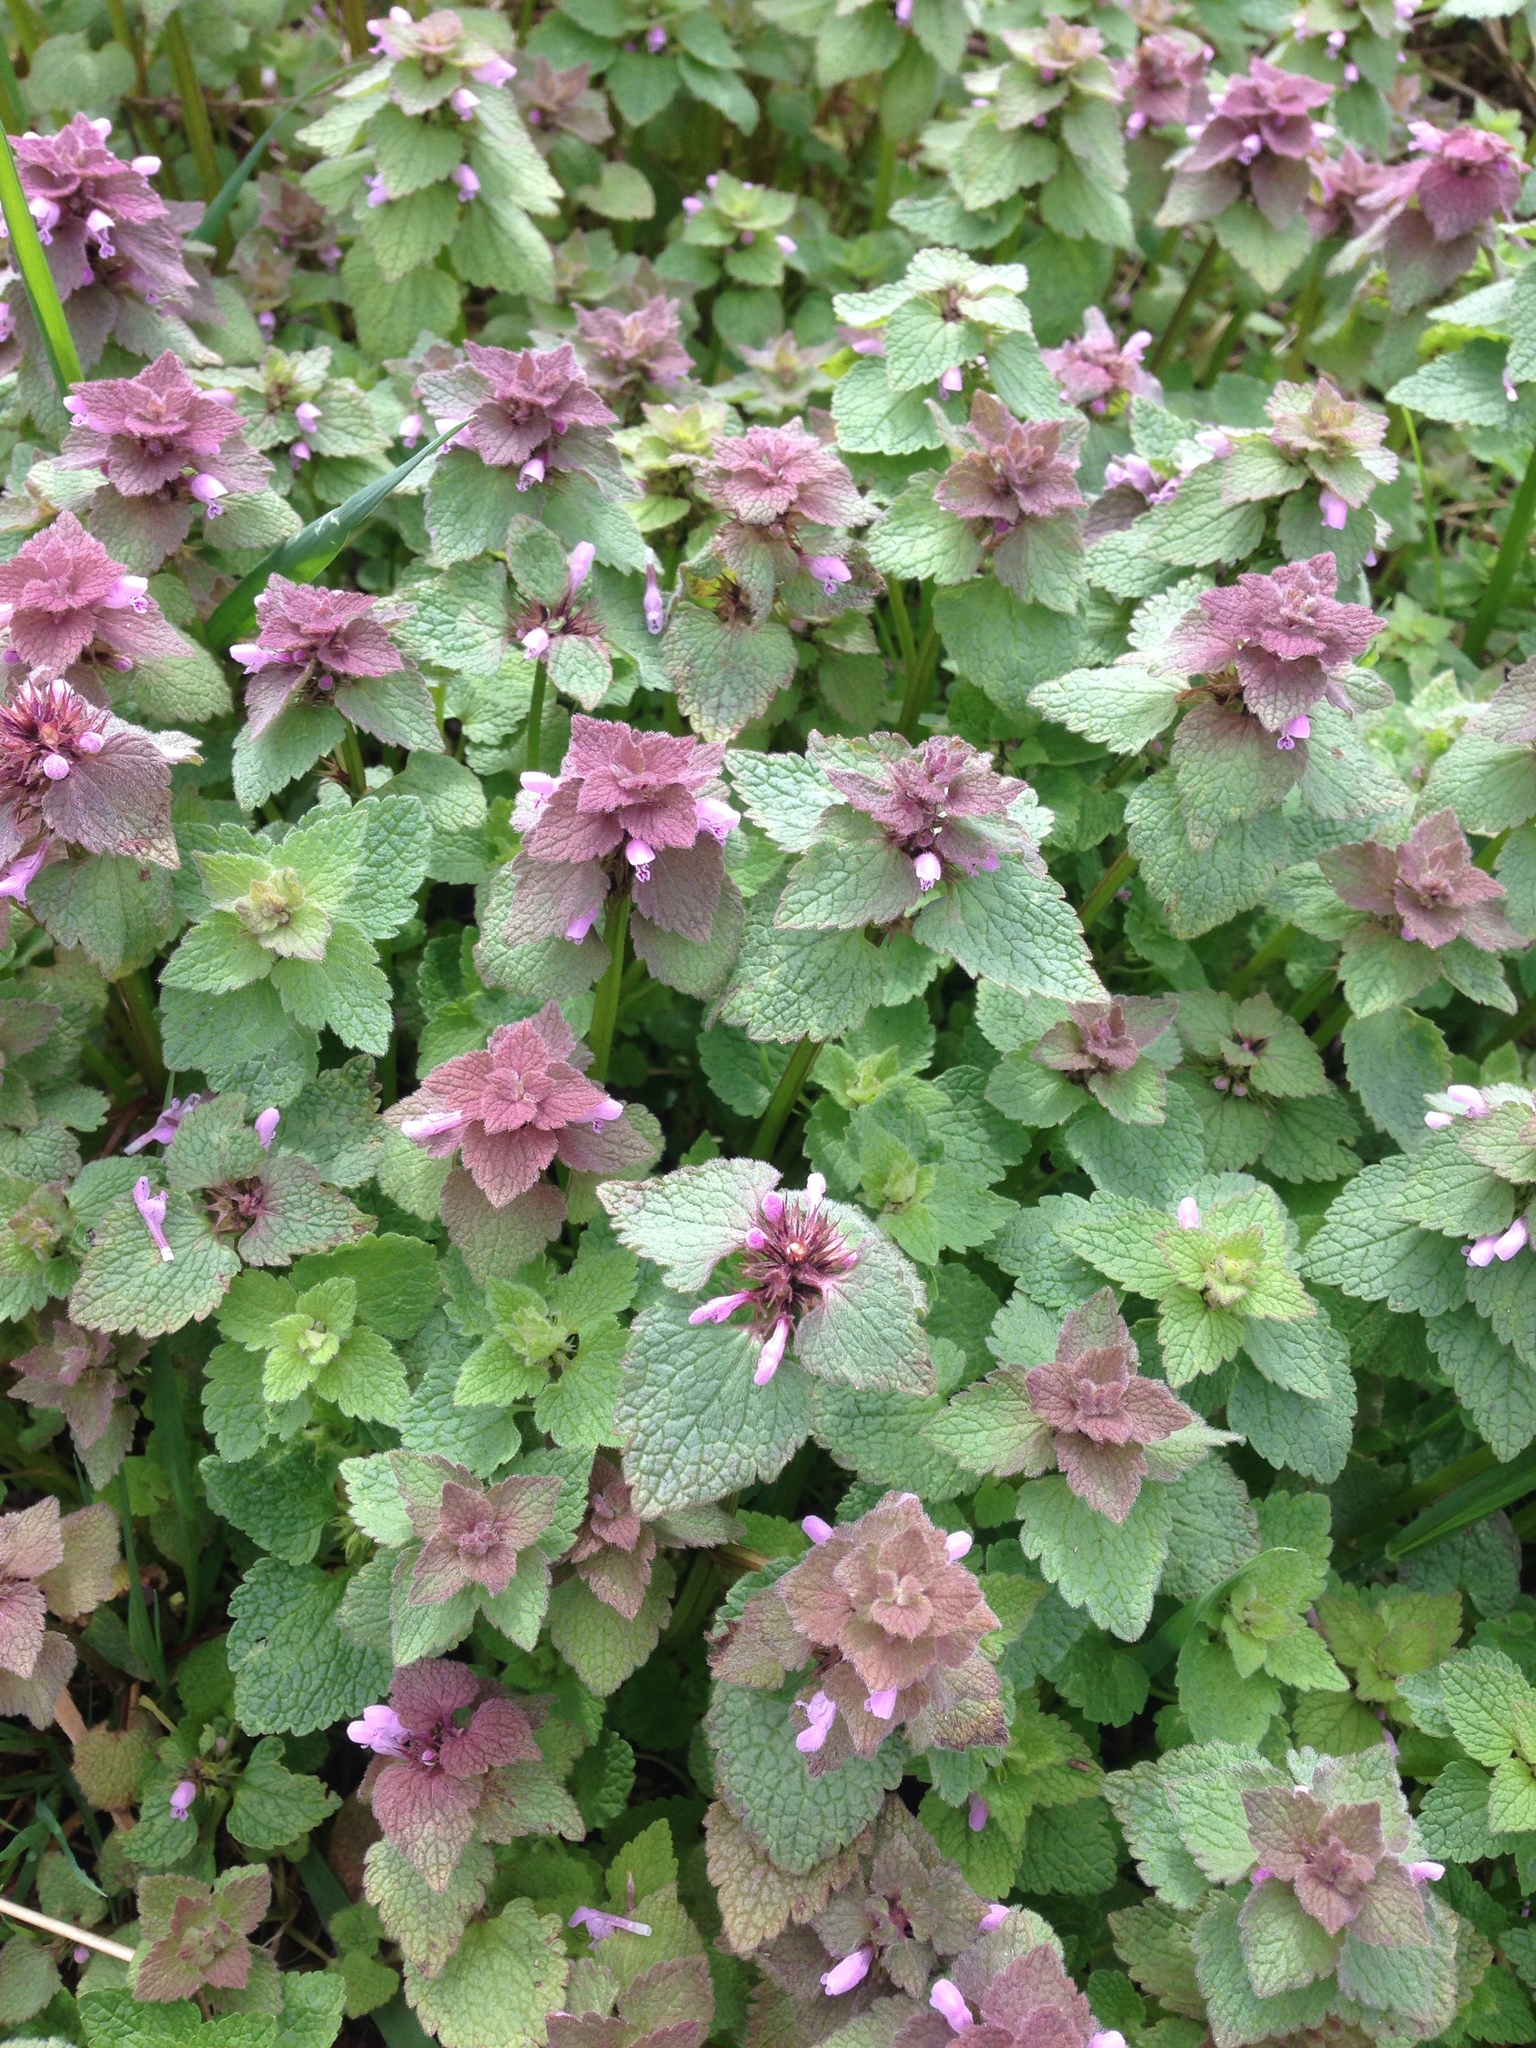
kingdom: Plantae
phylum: Tracheophyta
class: Magnoliopsida
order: Lamiales
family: Lamiaceae
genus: Lamium
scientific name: Lamium purpureum
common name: Red dead-nettle
